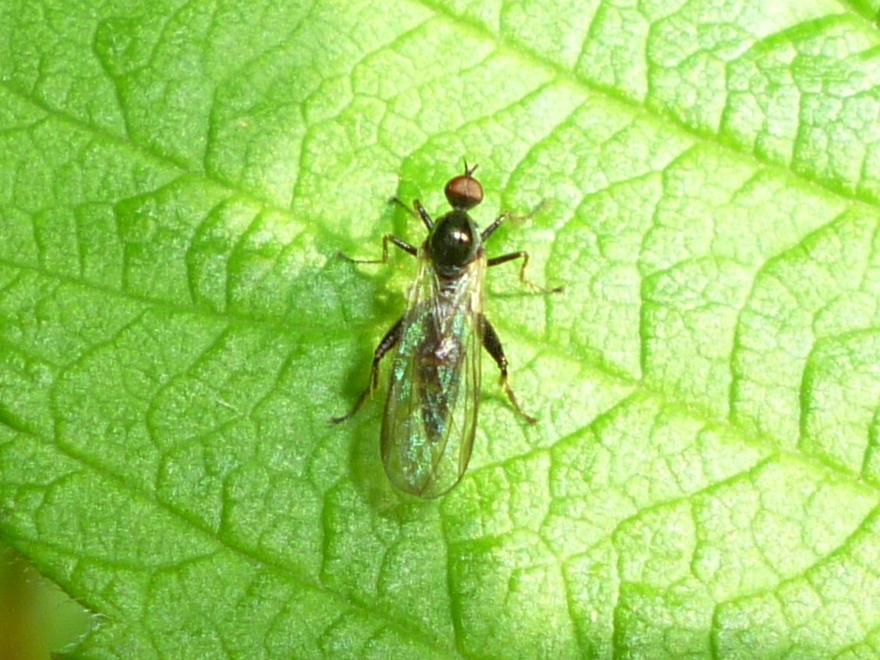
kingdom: Animalia
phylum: Arthropoda
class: Insecta
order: Diptera
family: Hybotidae
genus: Hybos
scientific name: Hybos reversus
